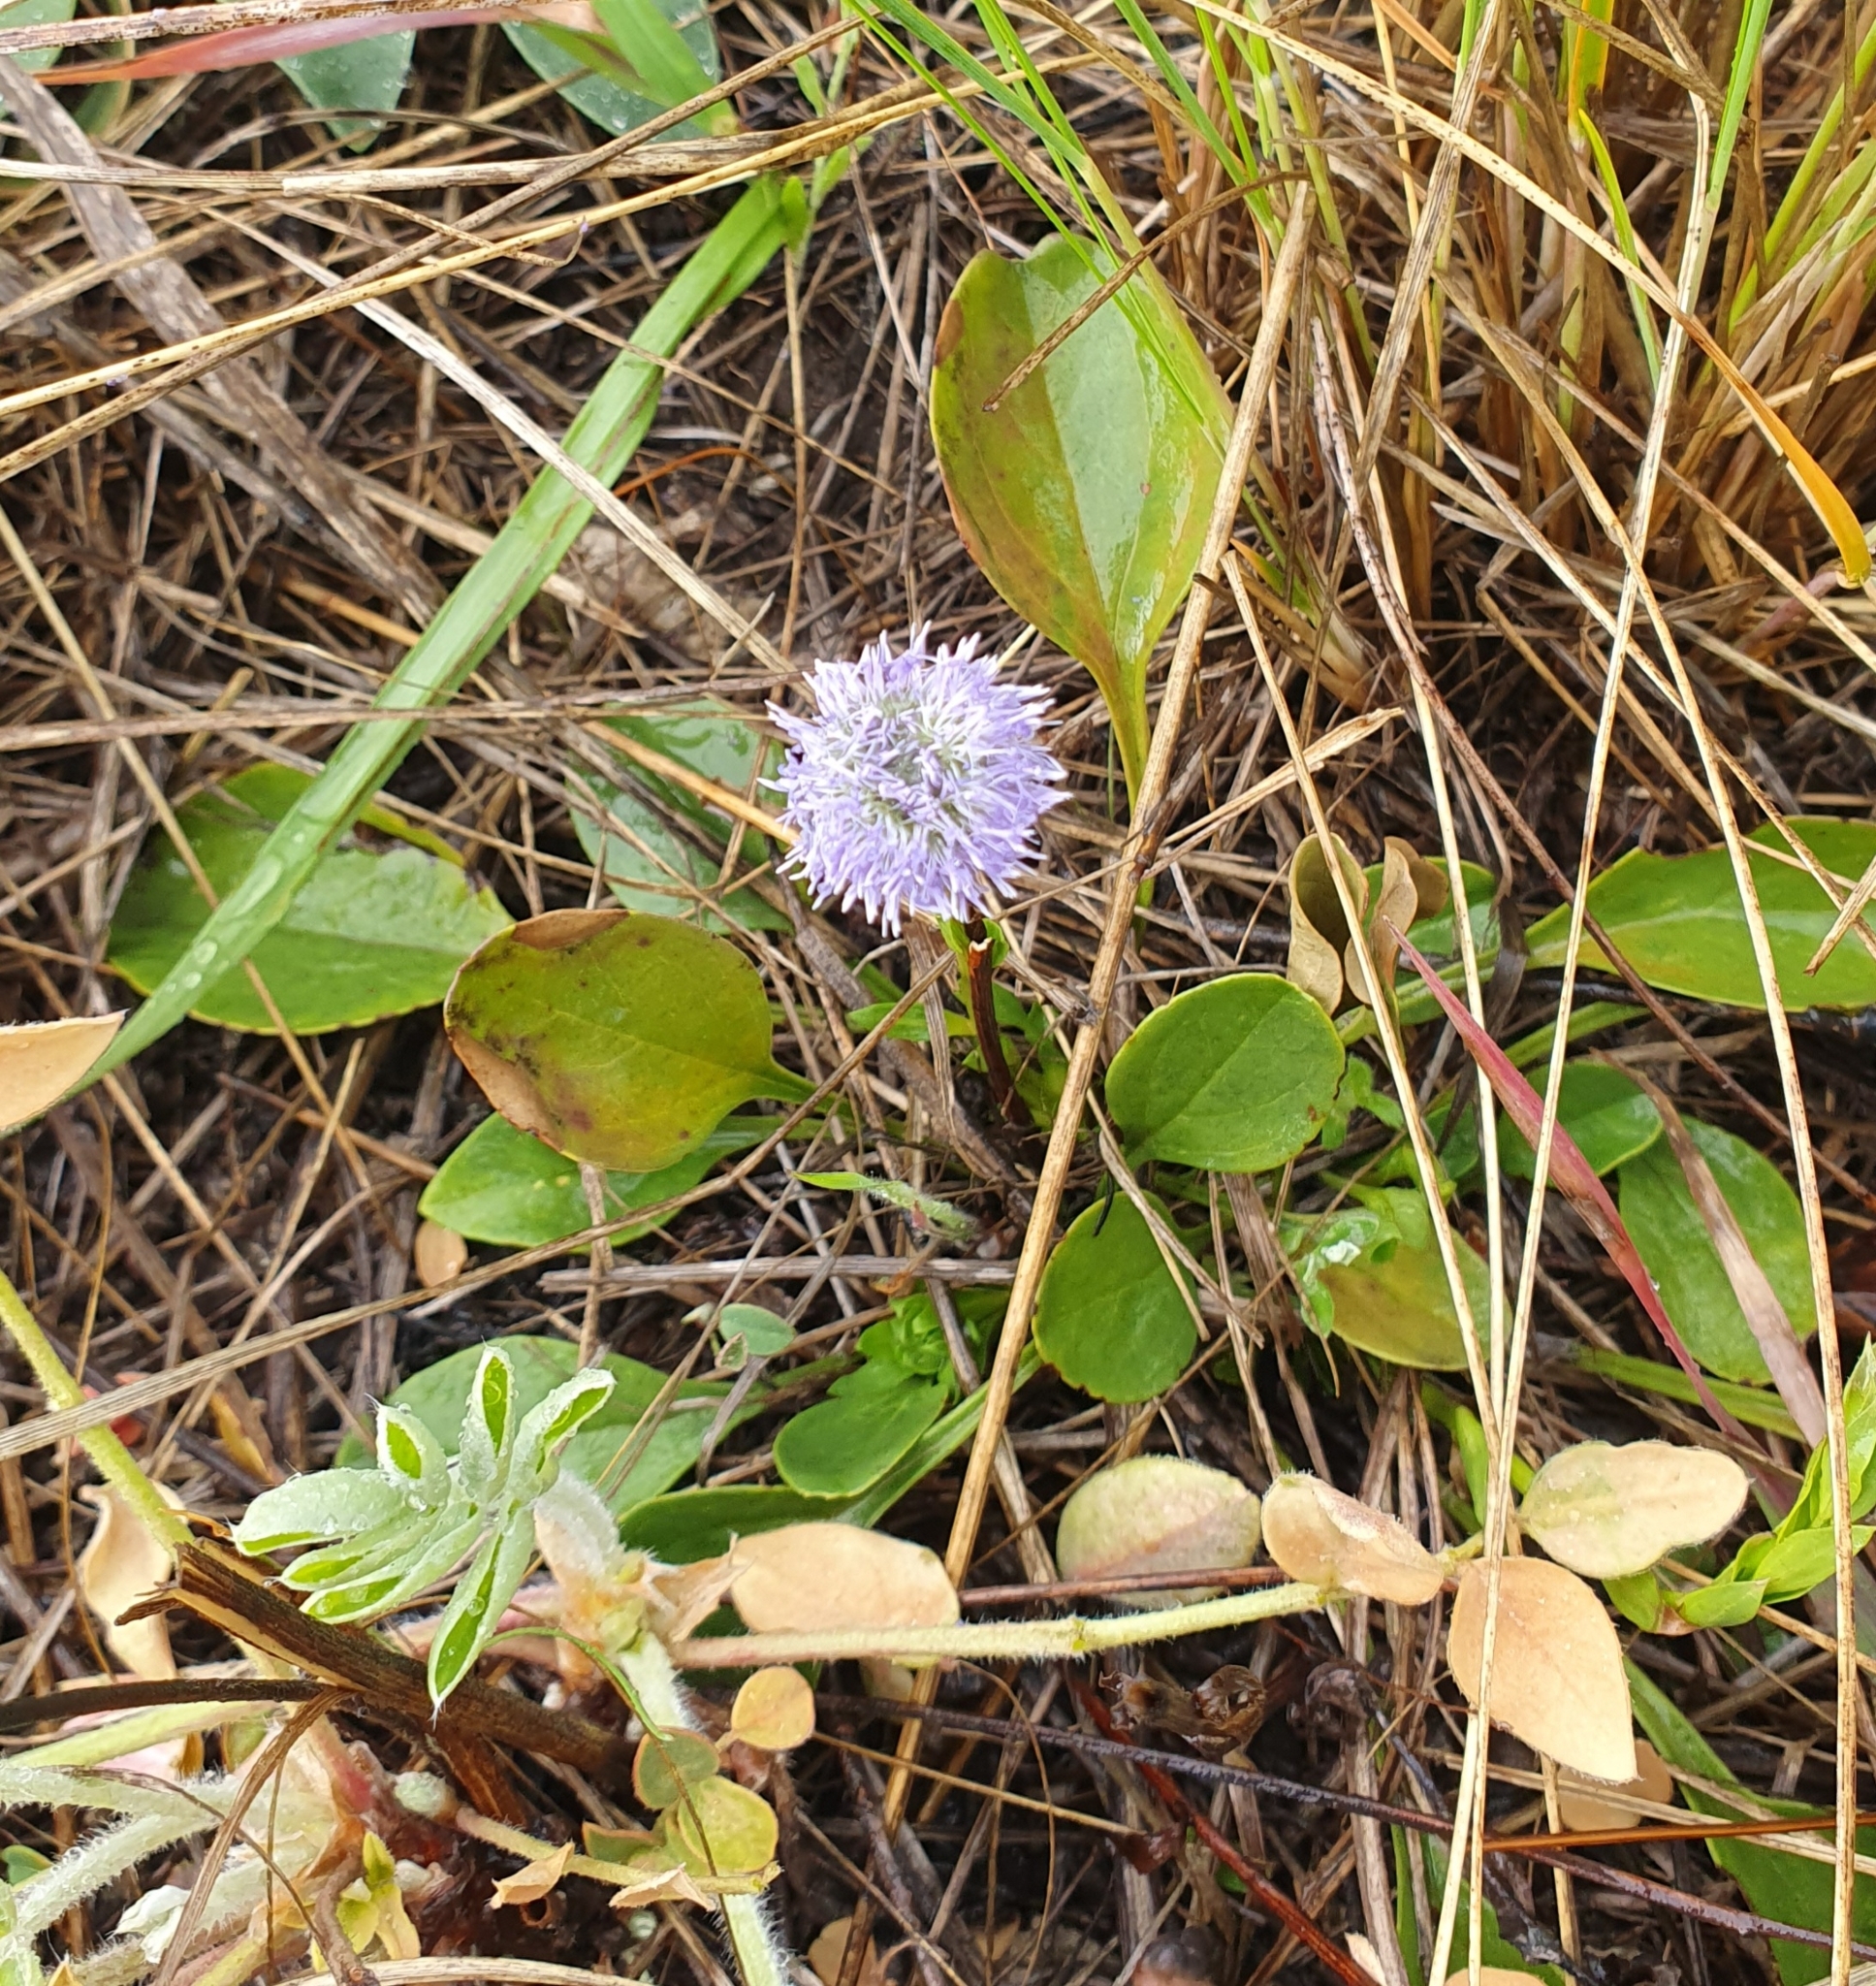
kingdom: Plantae
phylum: Tracheophyta
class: Magnoliopsida
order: Lamiales
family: Plantaginaceae
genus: Globularia
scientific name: Globularia bisnagarica
